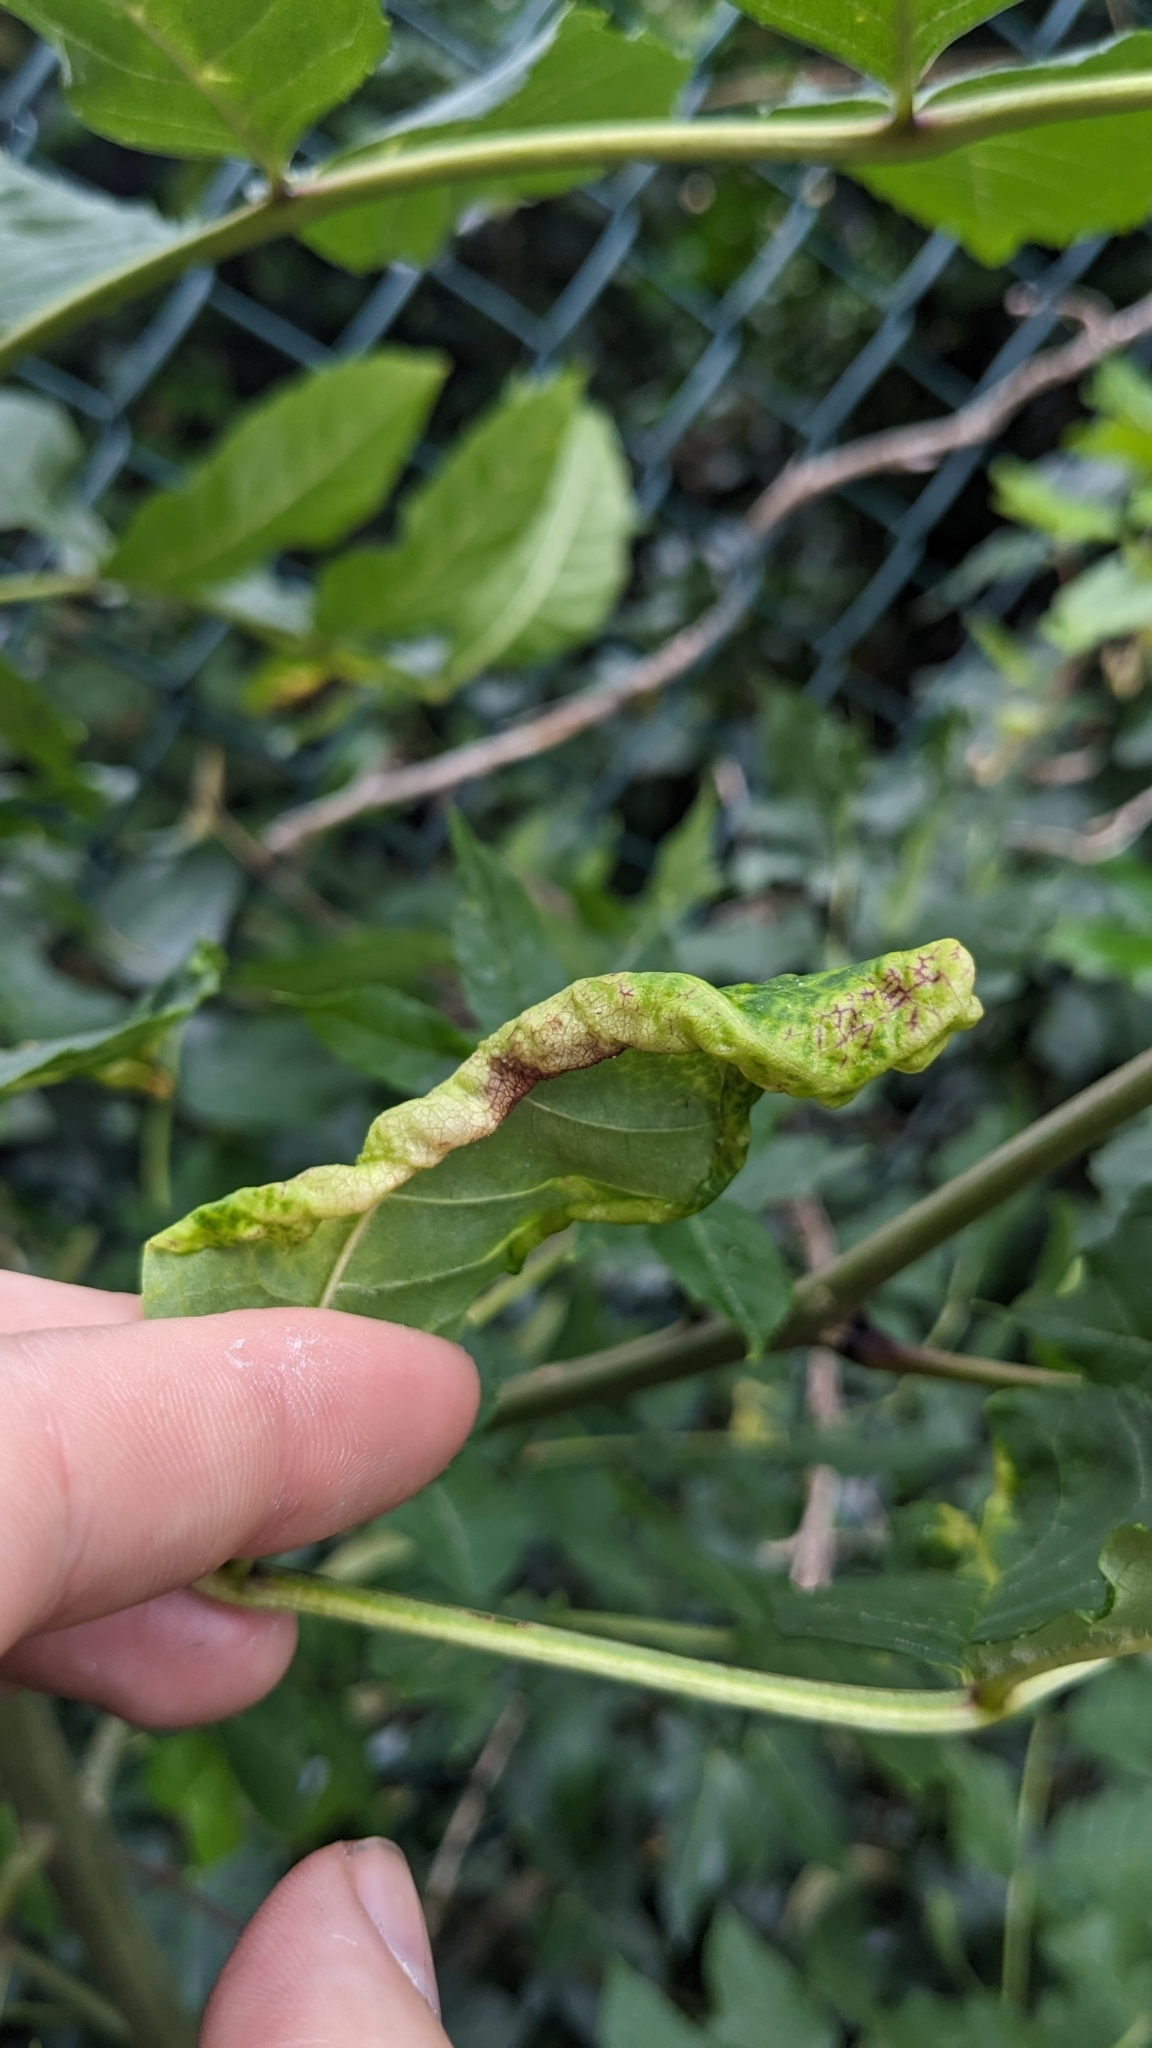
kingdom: Animalia
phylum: Arthropoda
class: Insecta
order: Hemiptera
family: Liviidae
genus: Psyllopsis
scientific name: Psyllopsis fraxini
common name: Jumping plant louse
